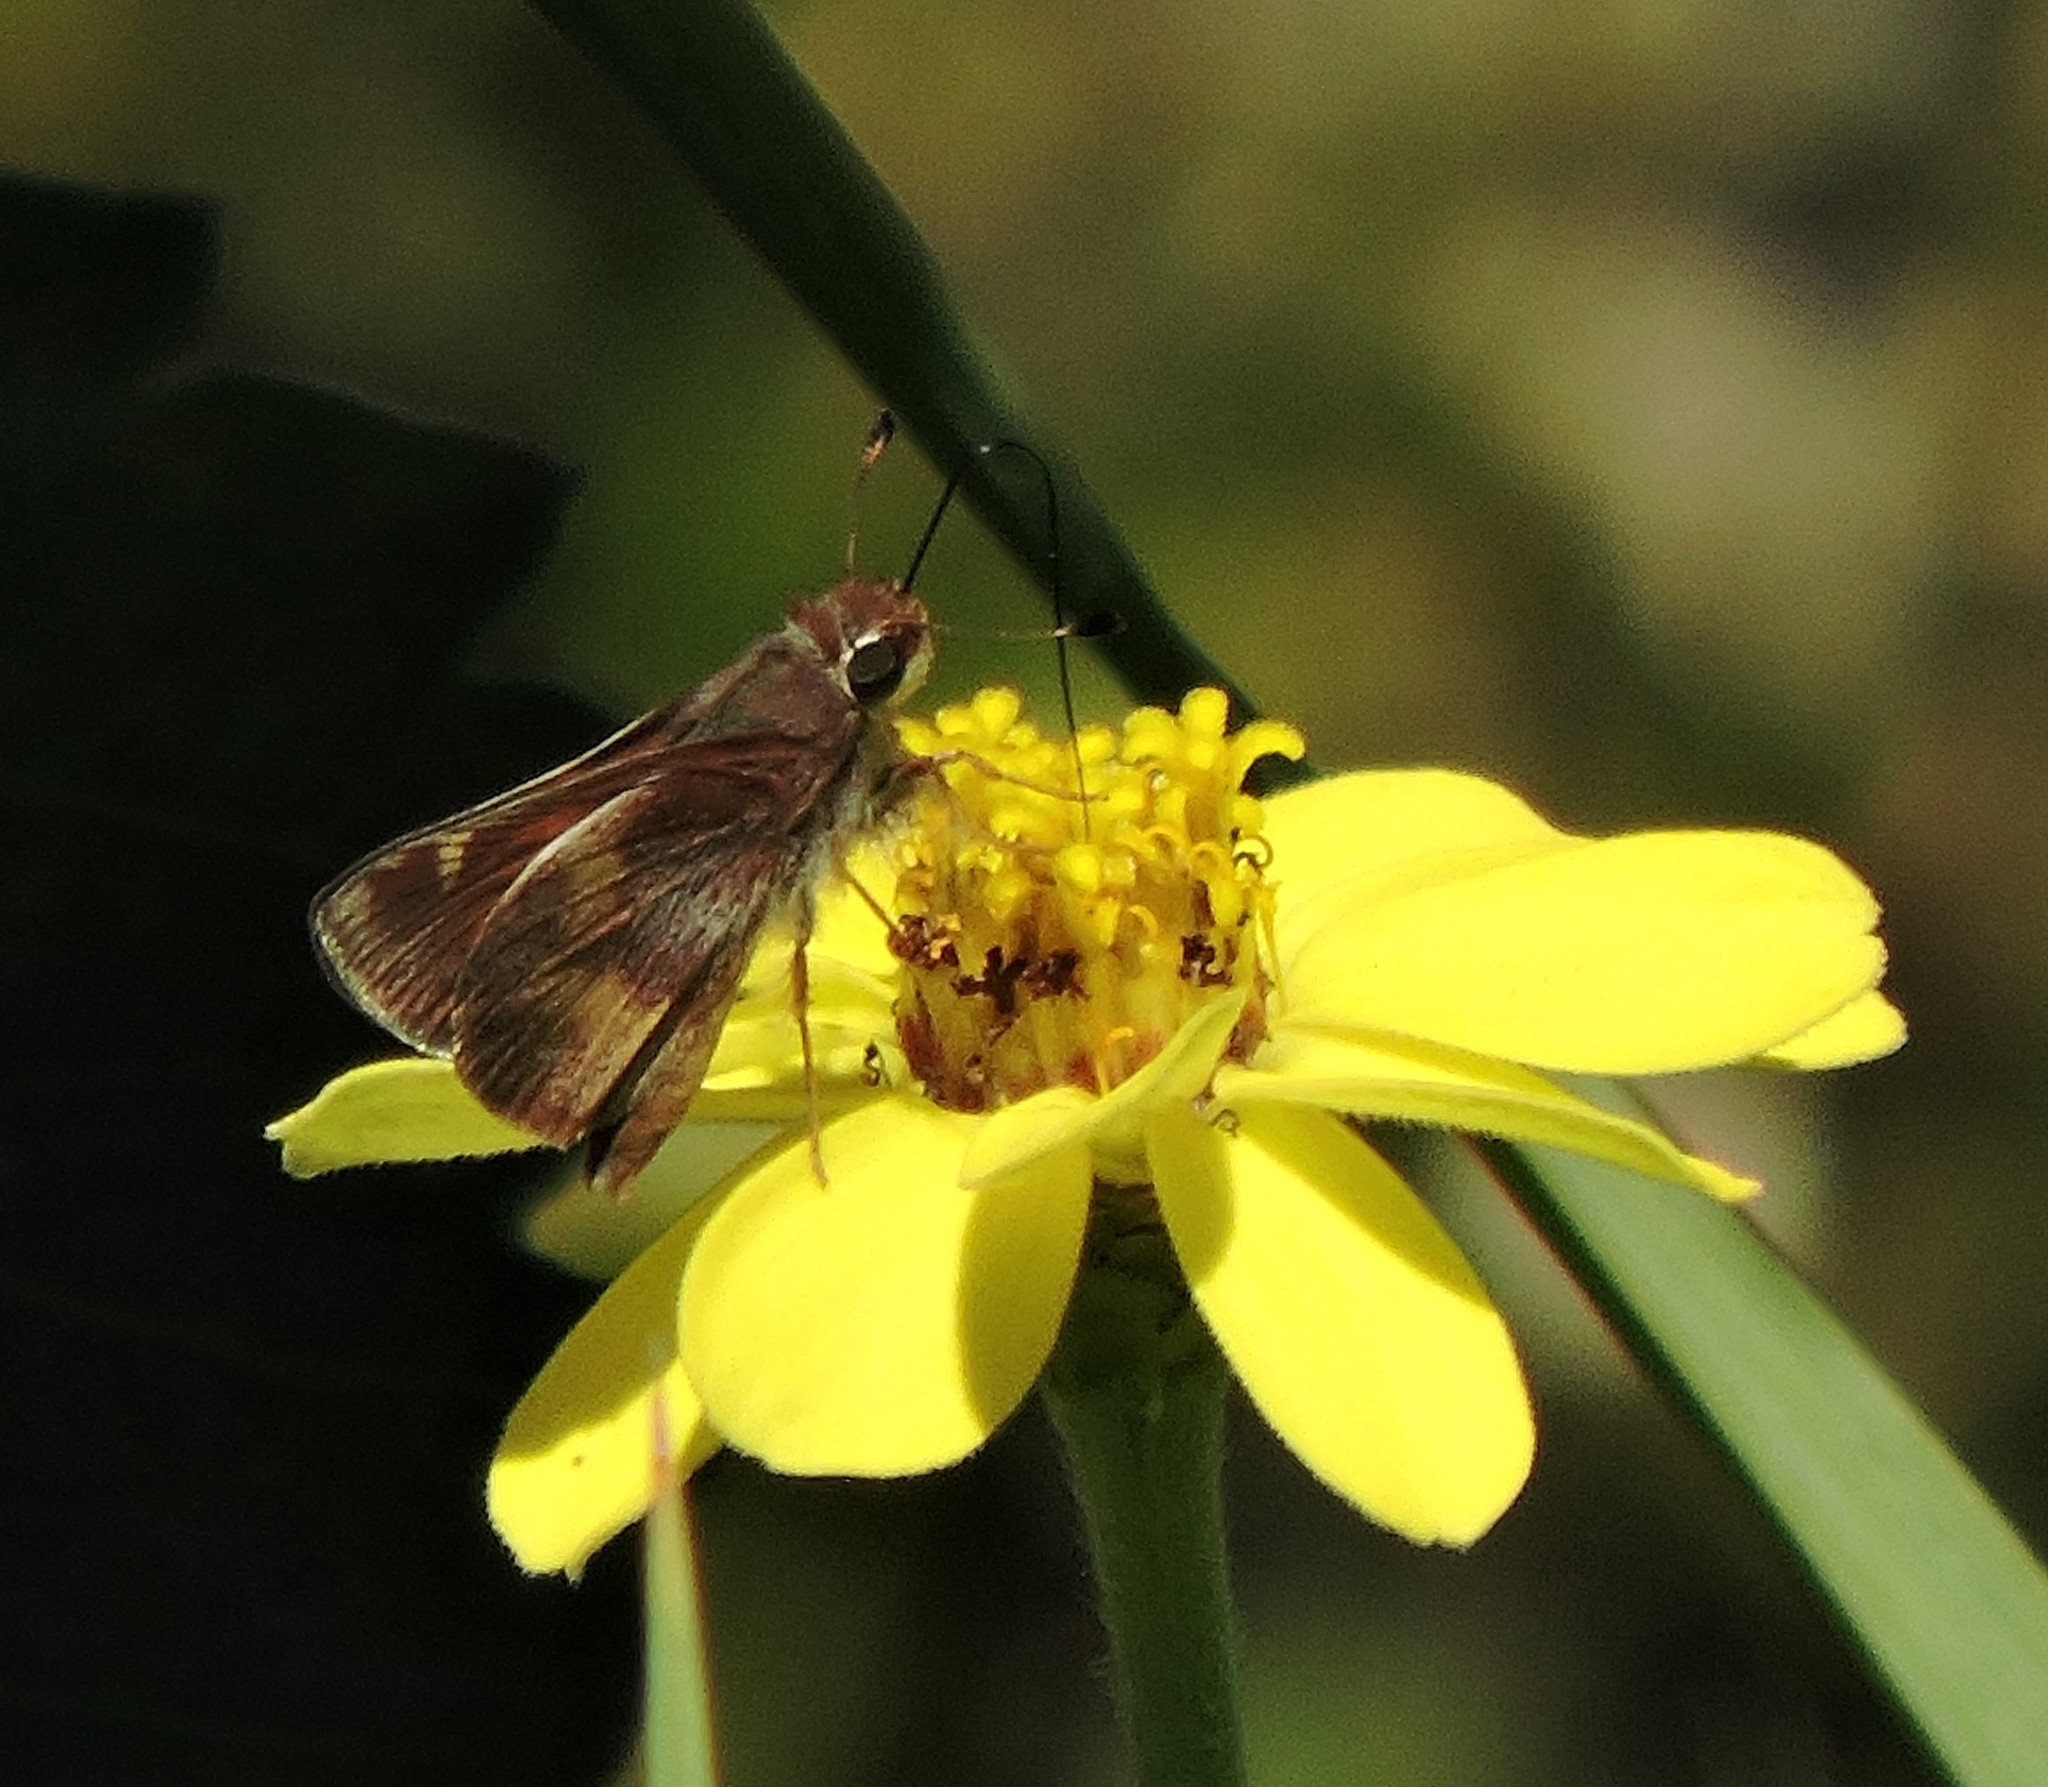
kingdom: Animalia
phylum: Arthropoda
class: Insecta
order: Lepidoptera
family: Hesperiidae
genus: Lon
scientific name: Lon melane
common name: Umber skipper
